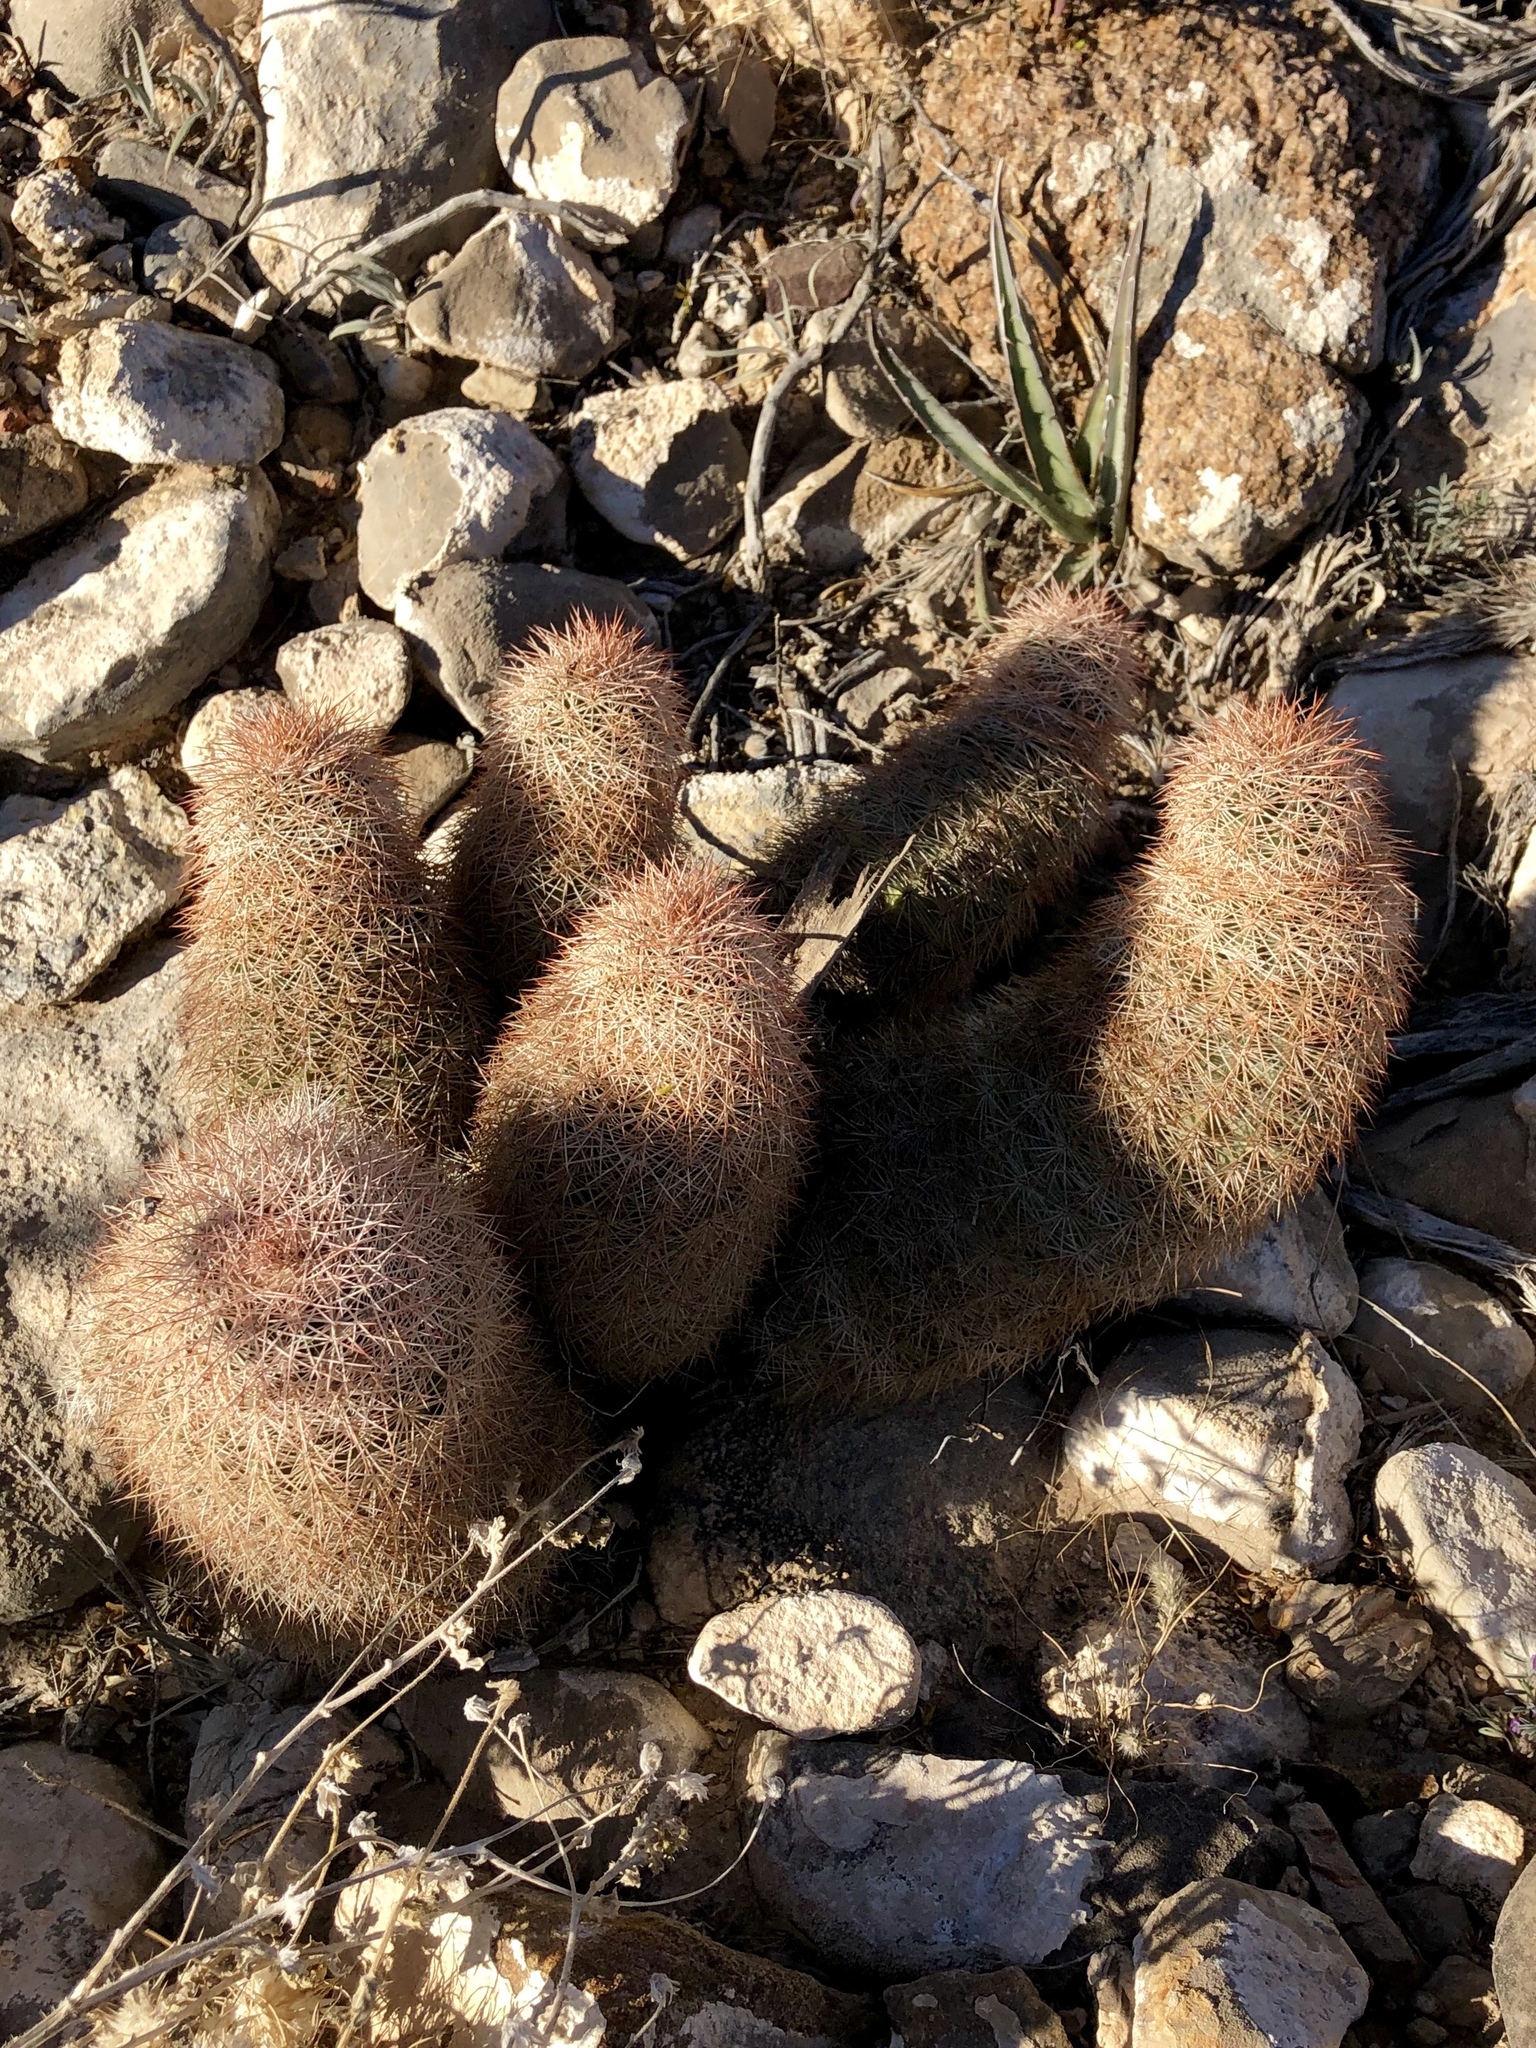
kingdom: Plantae
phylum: Tracheophyta
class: Magnoliopsida
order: Caryophyllales
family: Cactaceae
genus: Echinocereus
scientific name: Echinocereus dasyacanthus
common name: Spiny hedgehog cactus
